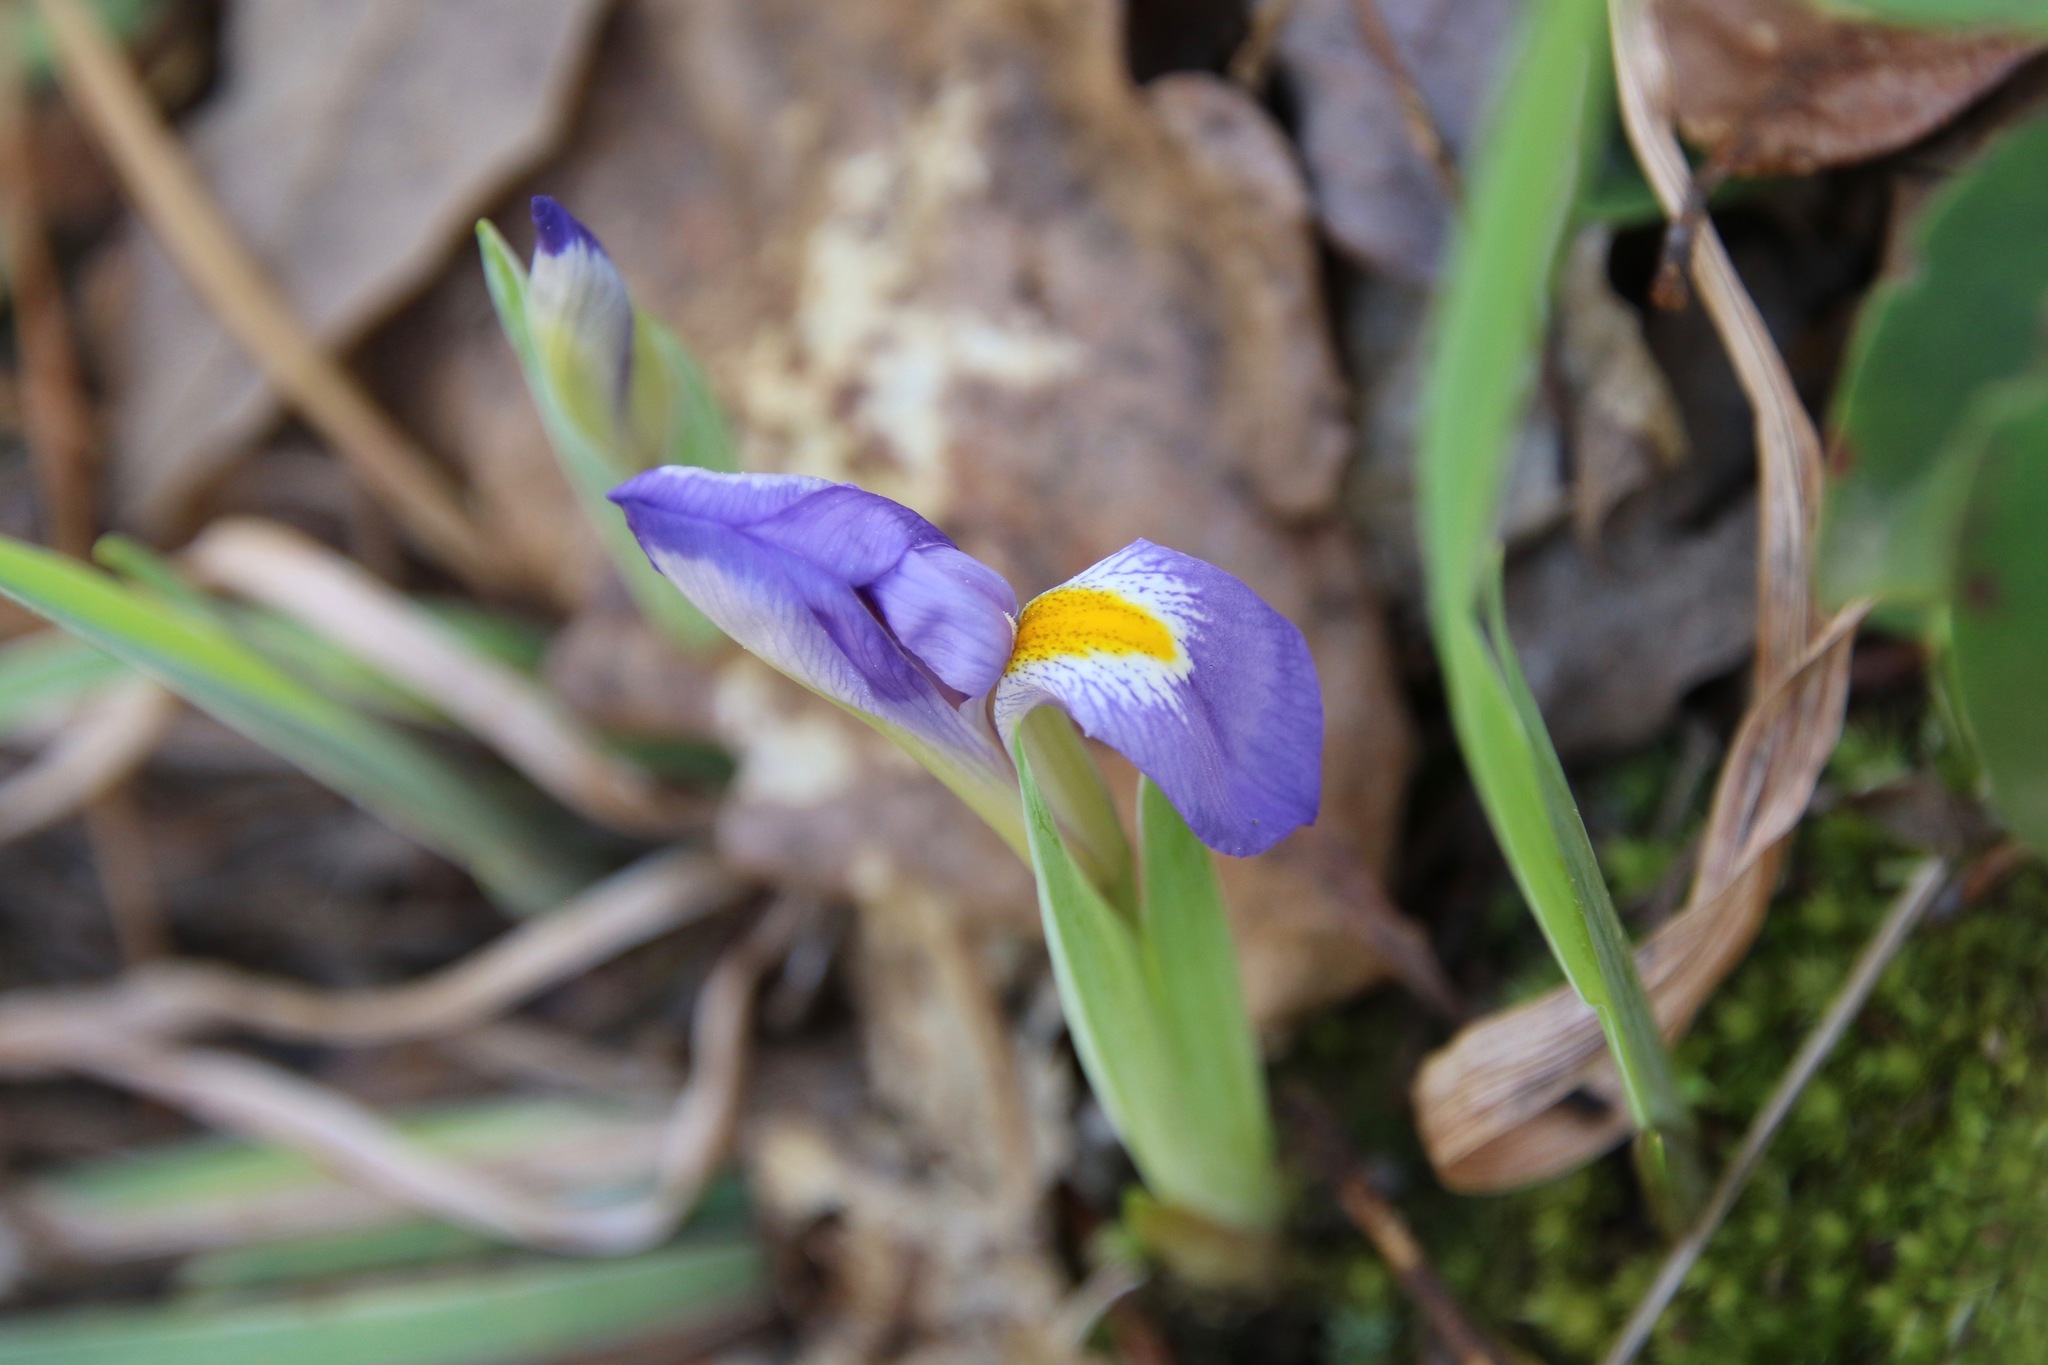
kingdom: Plantae
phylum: Tracheophyta
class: Liliopsida
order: Asparagales
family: Iridaceae
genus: Iris
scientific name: Iris verna
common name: Dwarf iris
